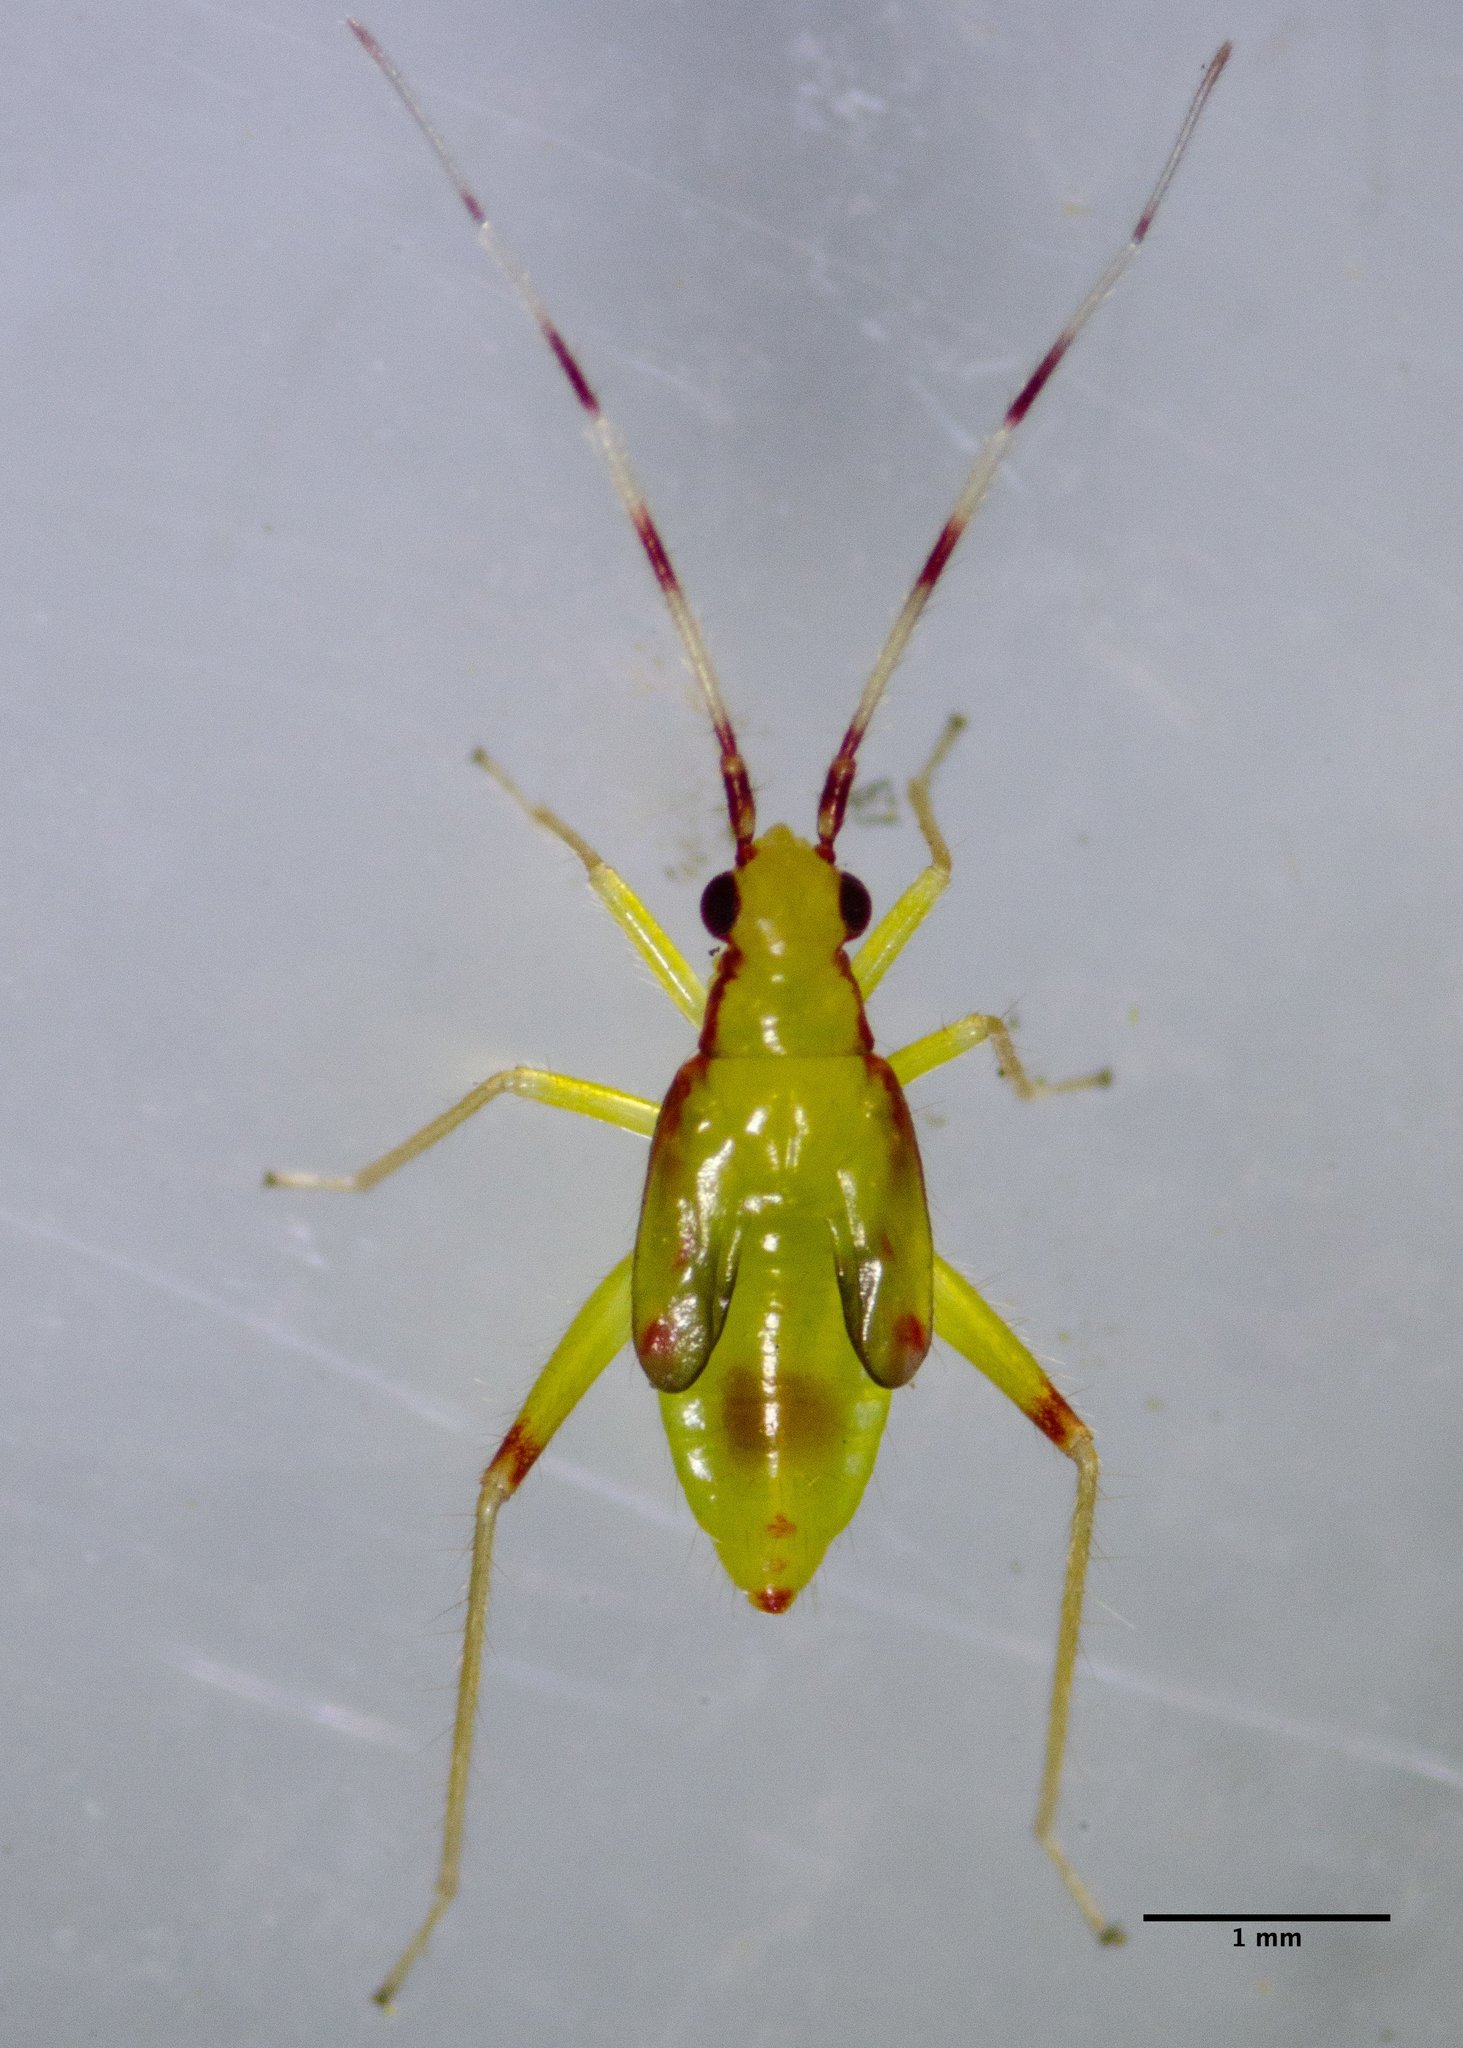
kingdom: Animalia
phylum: Arthropoda
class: Insecta
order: Hemiptera
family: Miridae
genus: Campyloneura
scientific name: Campyloneura virgula
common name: Predatory bug
